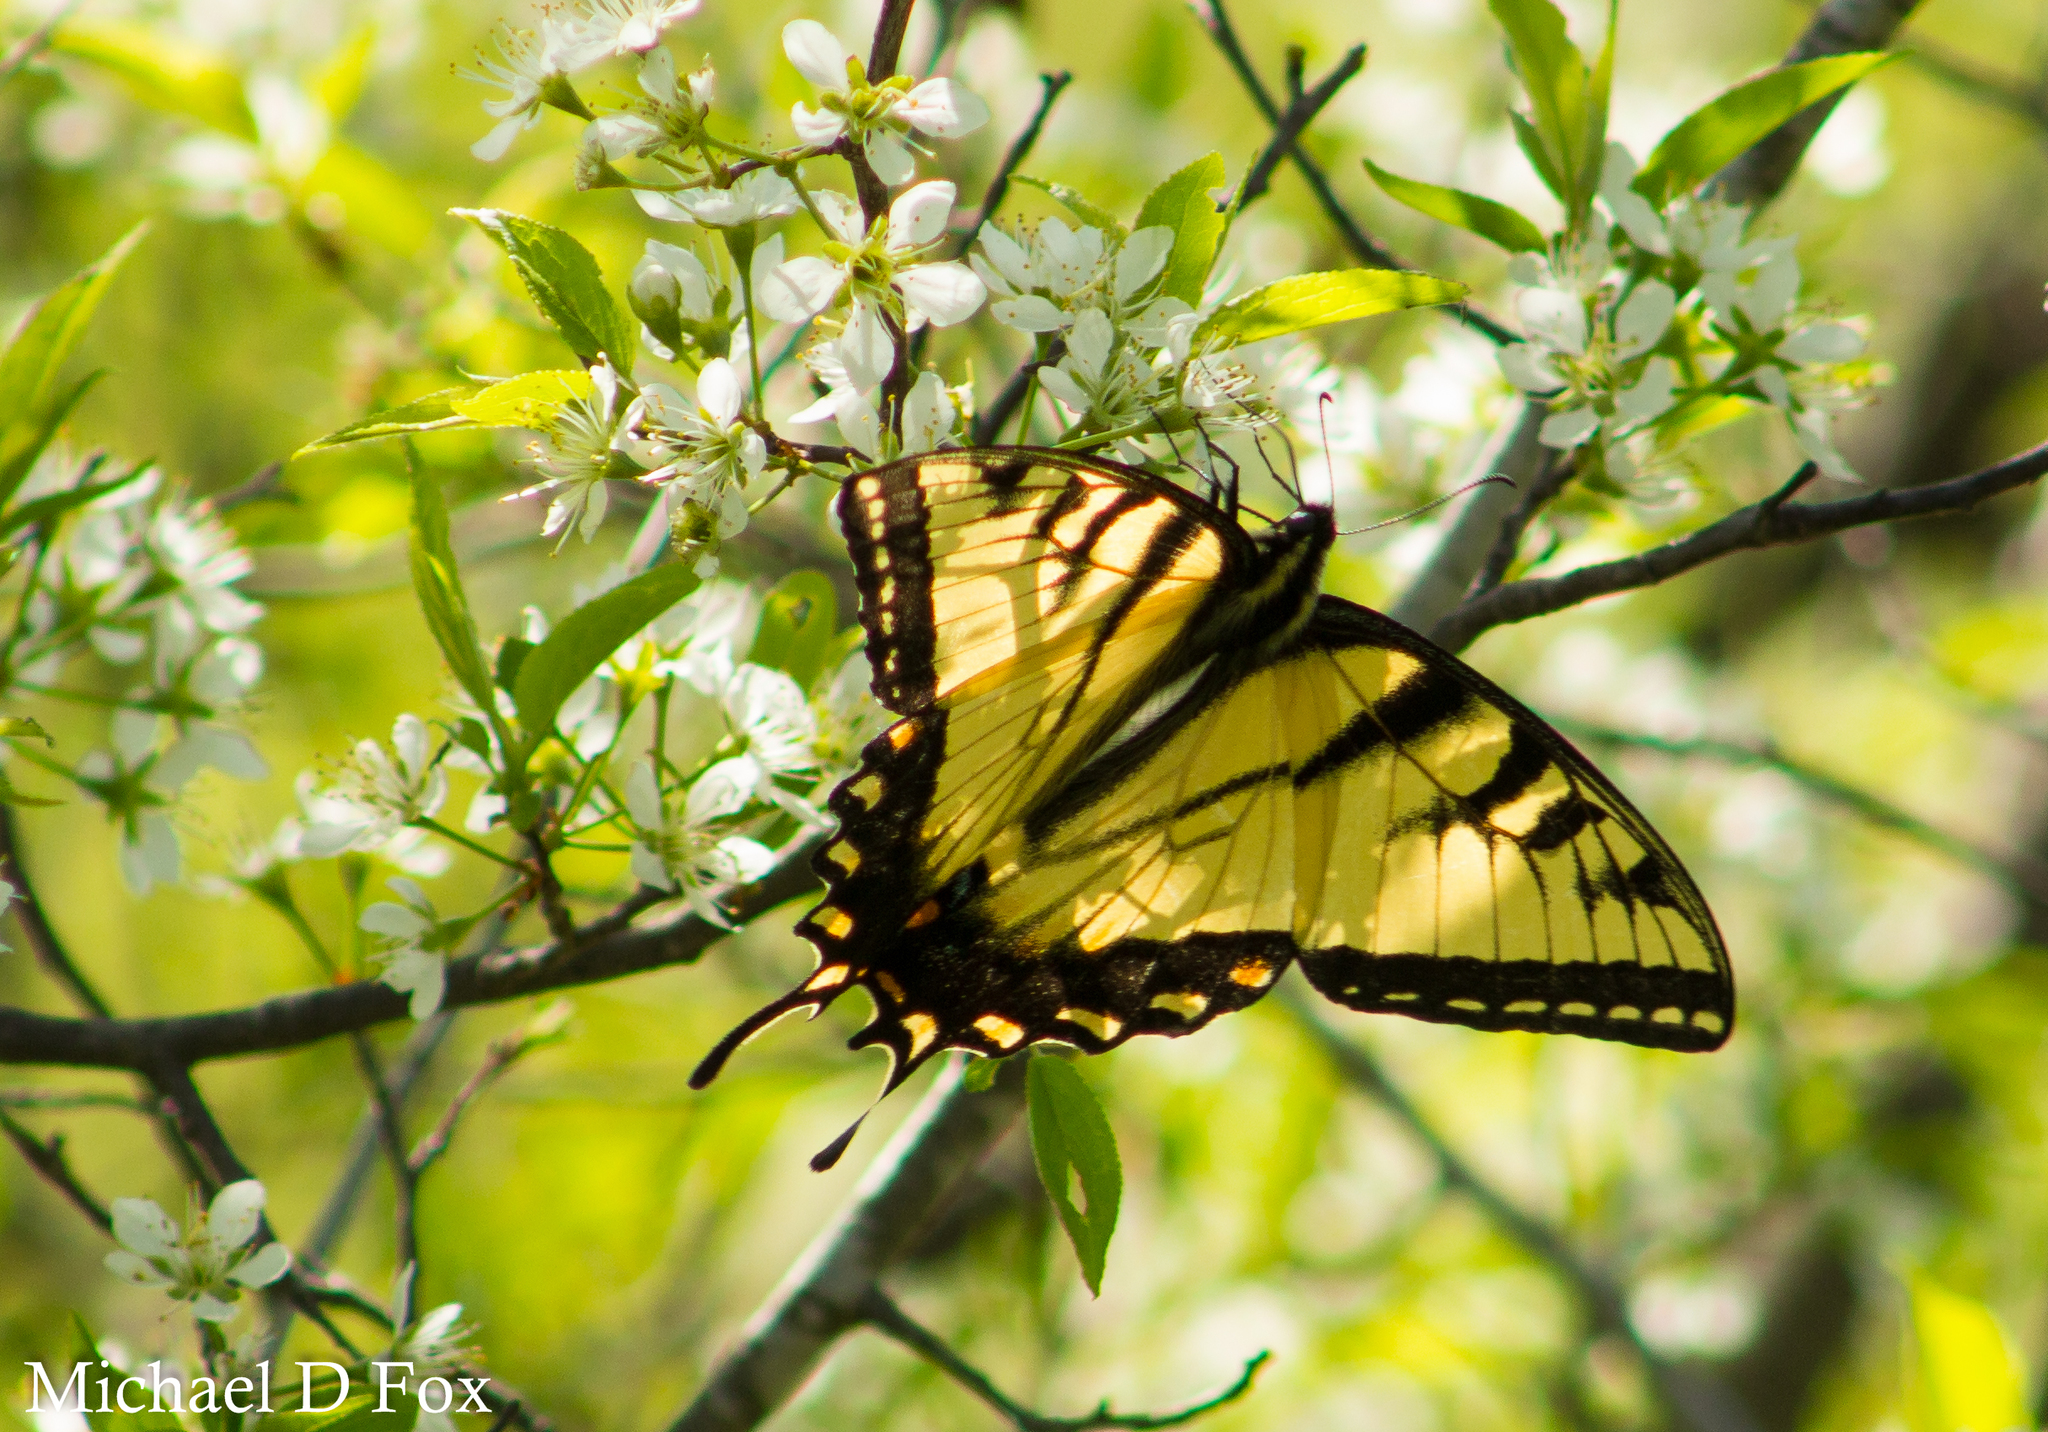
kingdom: Animalia
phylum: Arthropoda
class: Insecta
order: Lepidoptera
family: Papilionidae
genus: Papilio
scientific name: Papilio glaucus
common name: Tiger swallowtail
